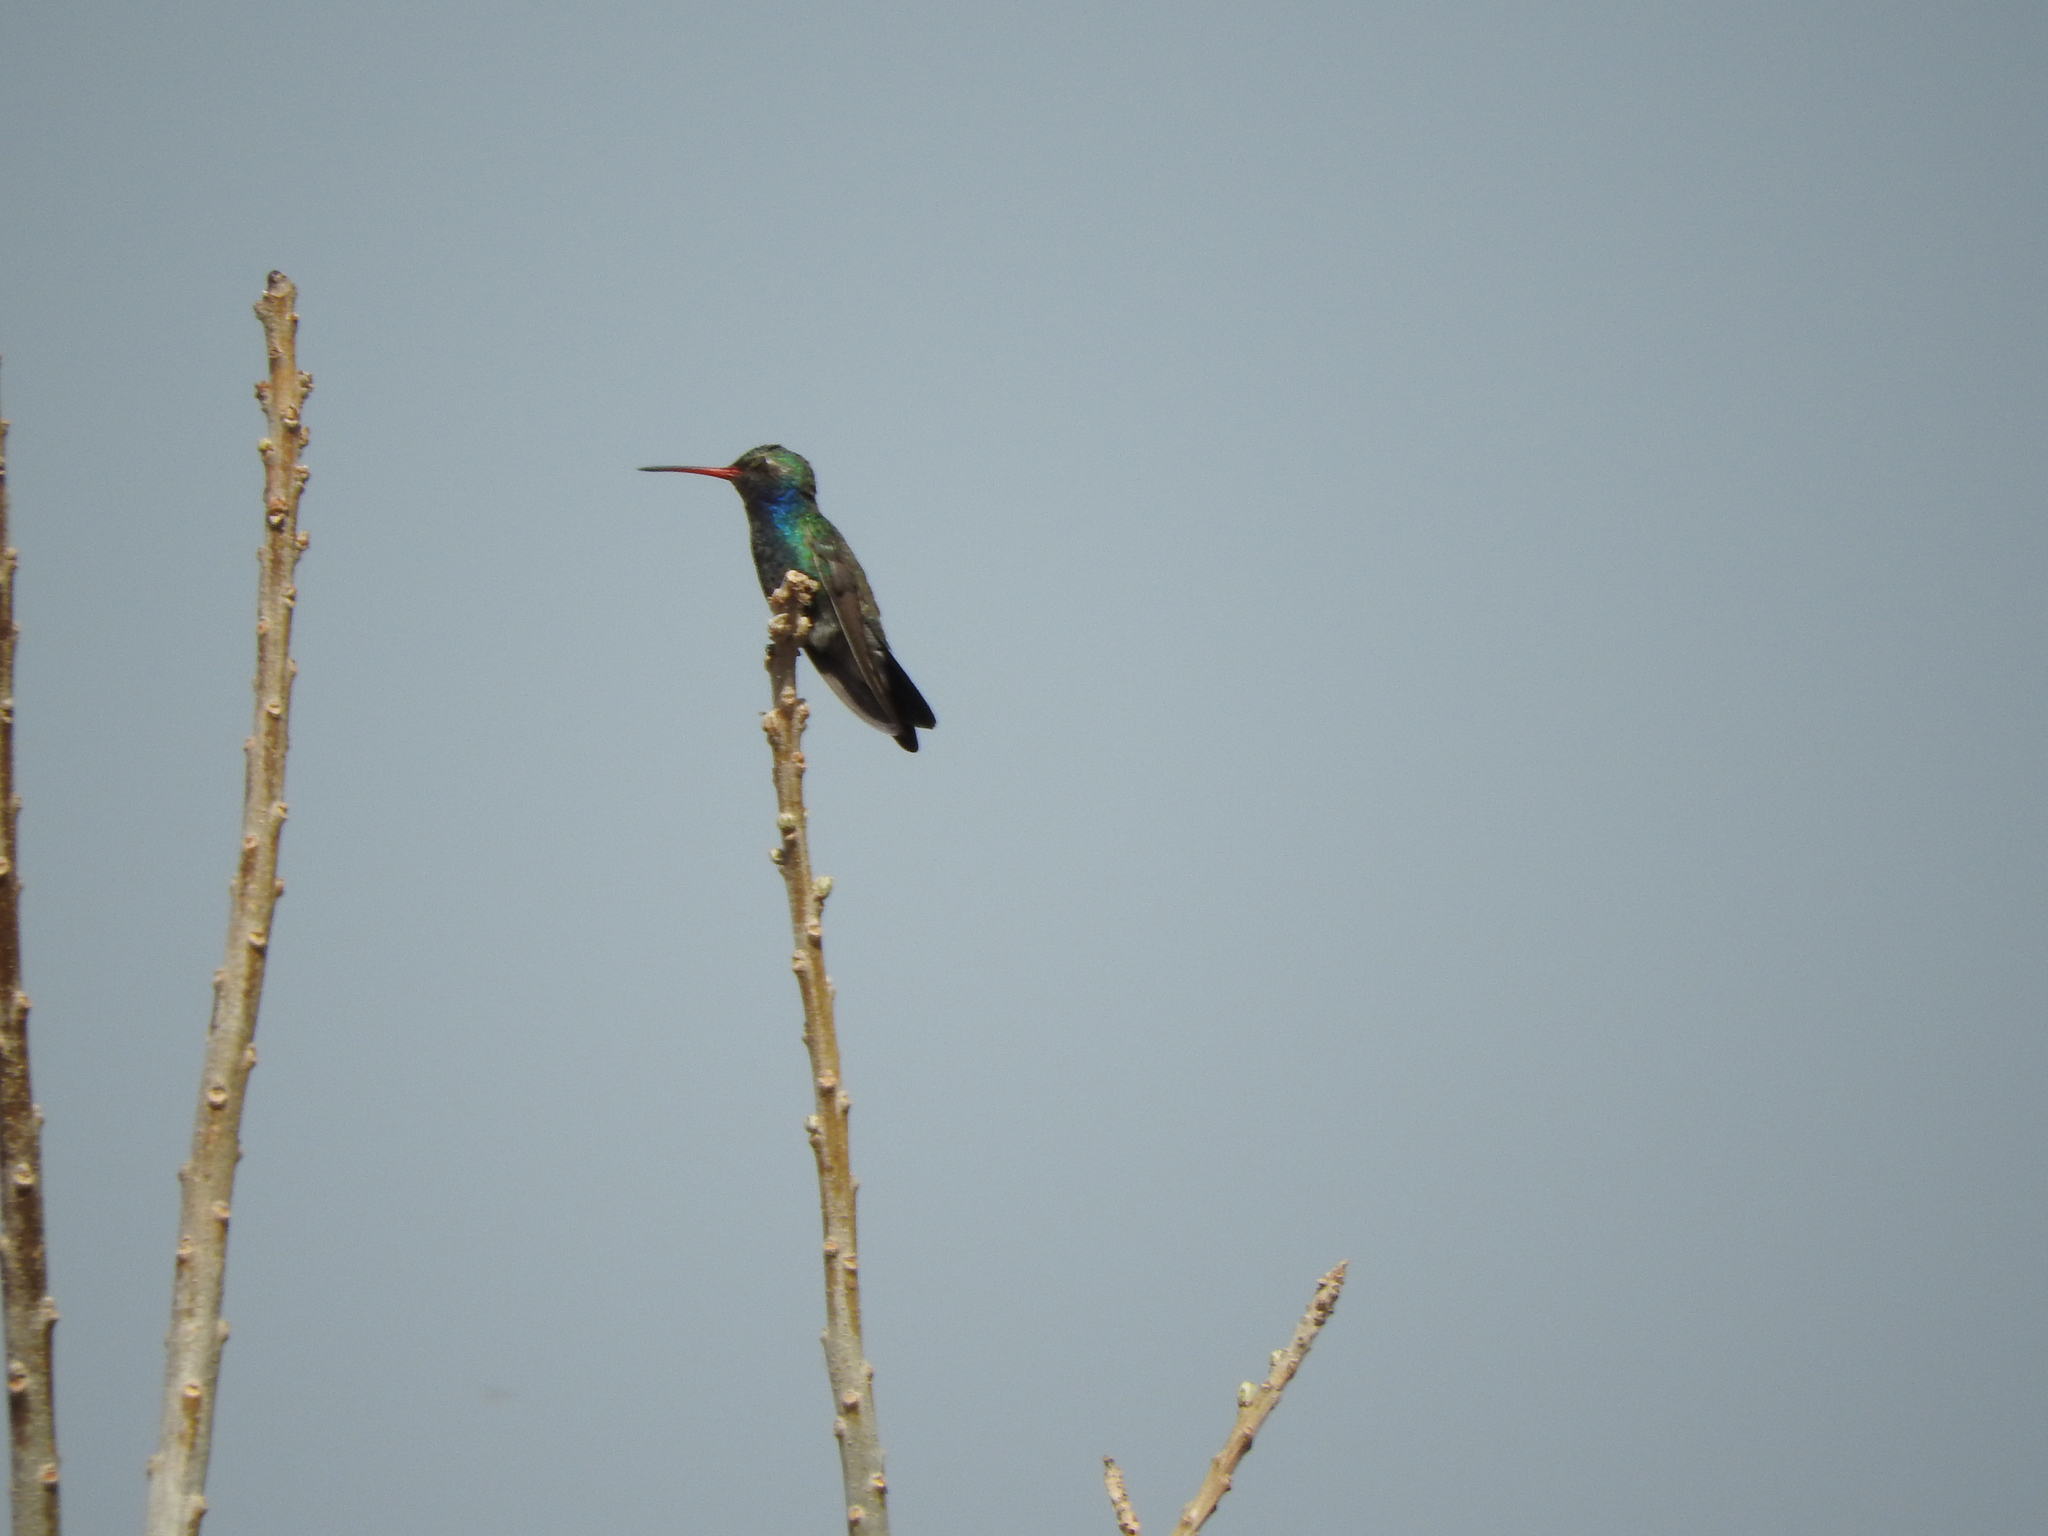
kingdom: Animalia
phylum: Chordata
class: Aves
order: Apodiformes
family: Trochilidae
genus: Cynanthus
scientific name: Cynanthus latirostris
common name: Broad-billed hummingbird
